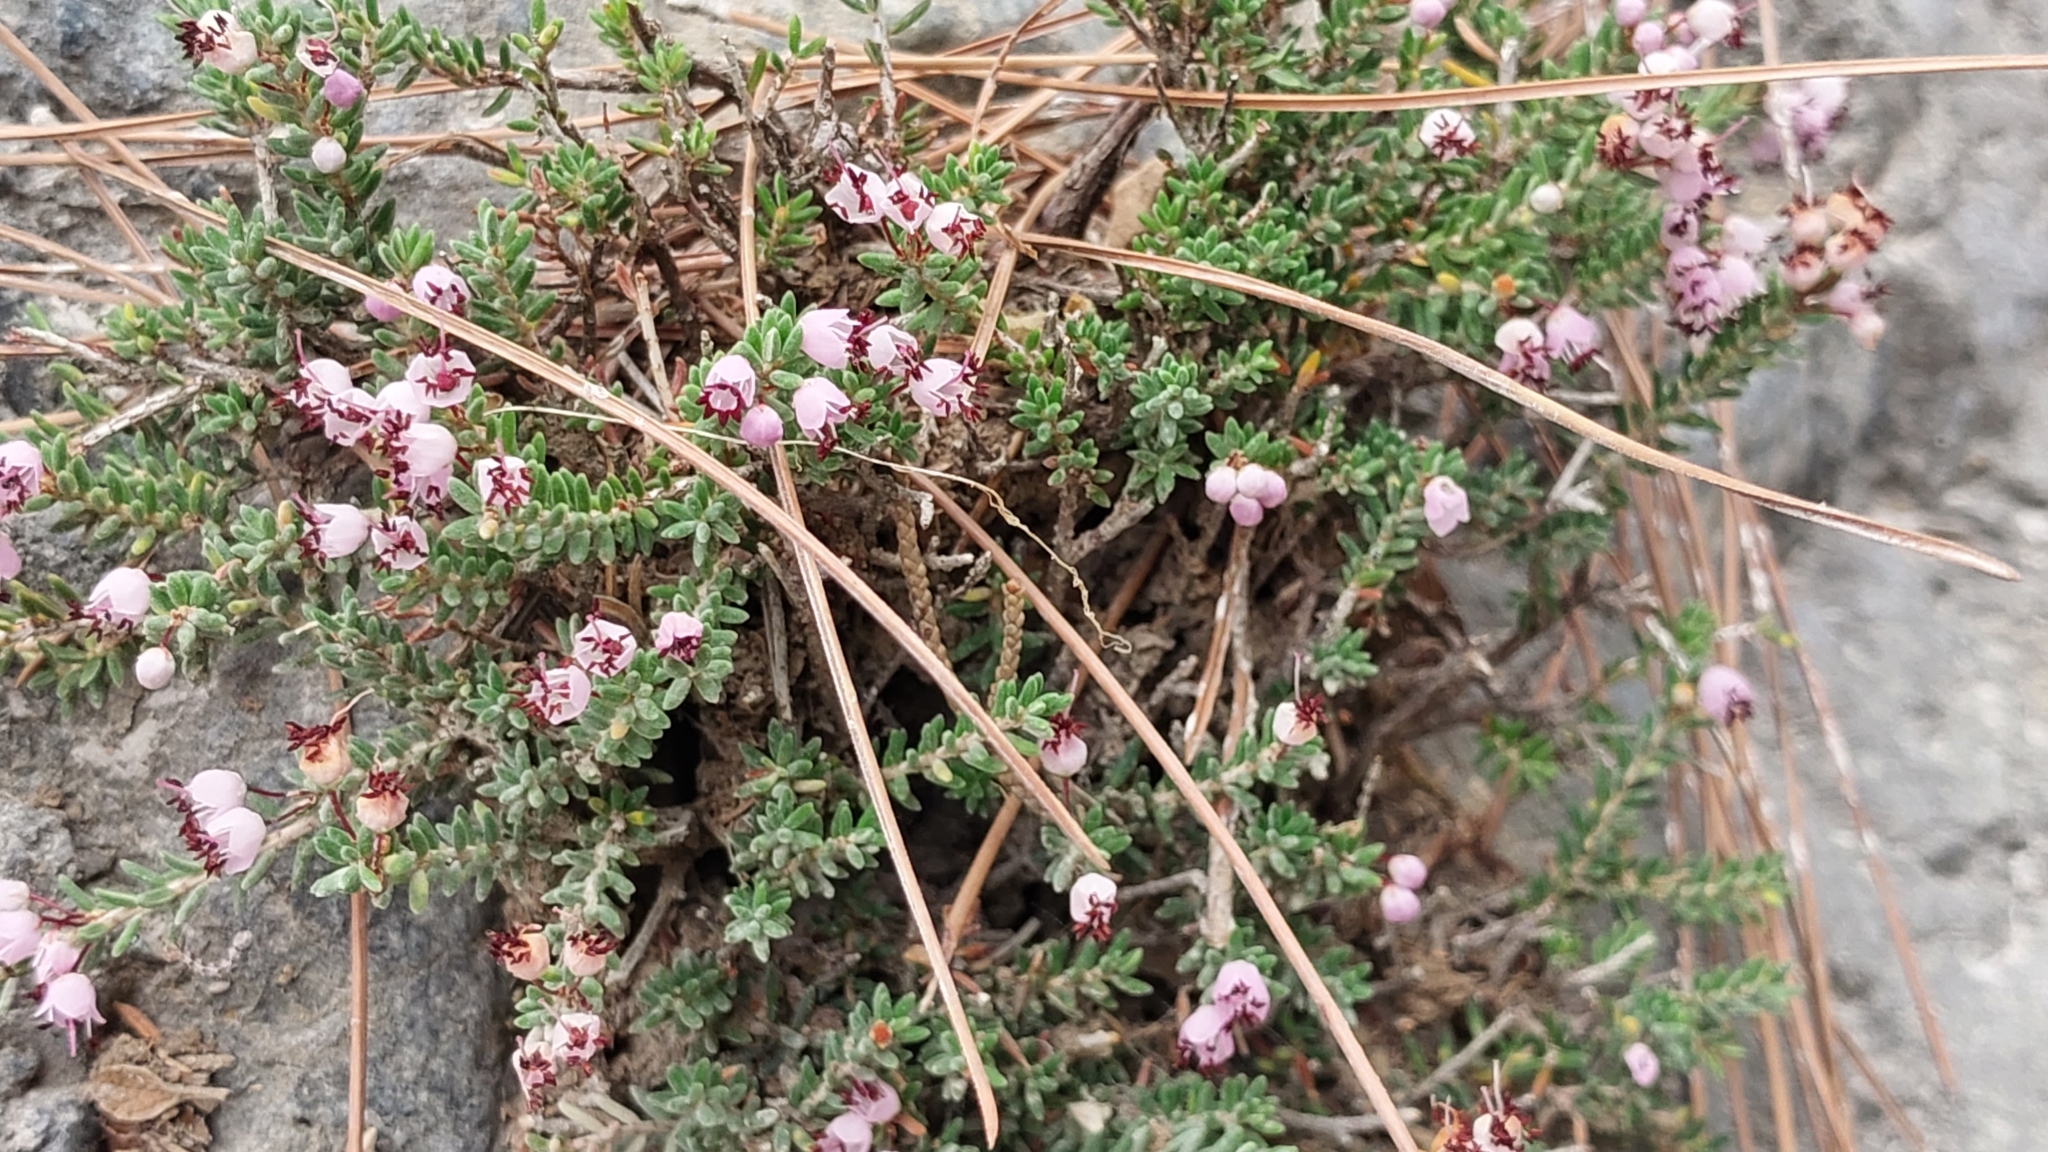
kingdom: Plantae
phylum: Tracheophyta
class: Magnoliopsida
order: Ericales
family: Ericaceae
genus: Erica
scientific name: Erica manipuliflora
